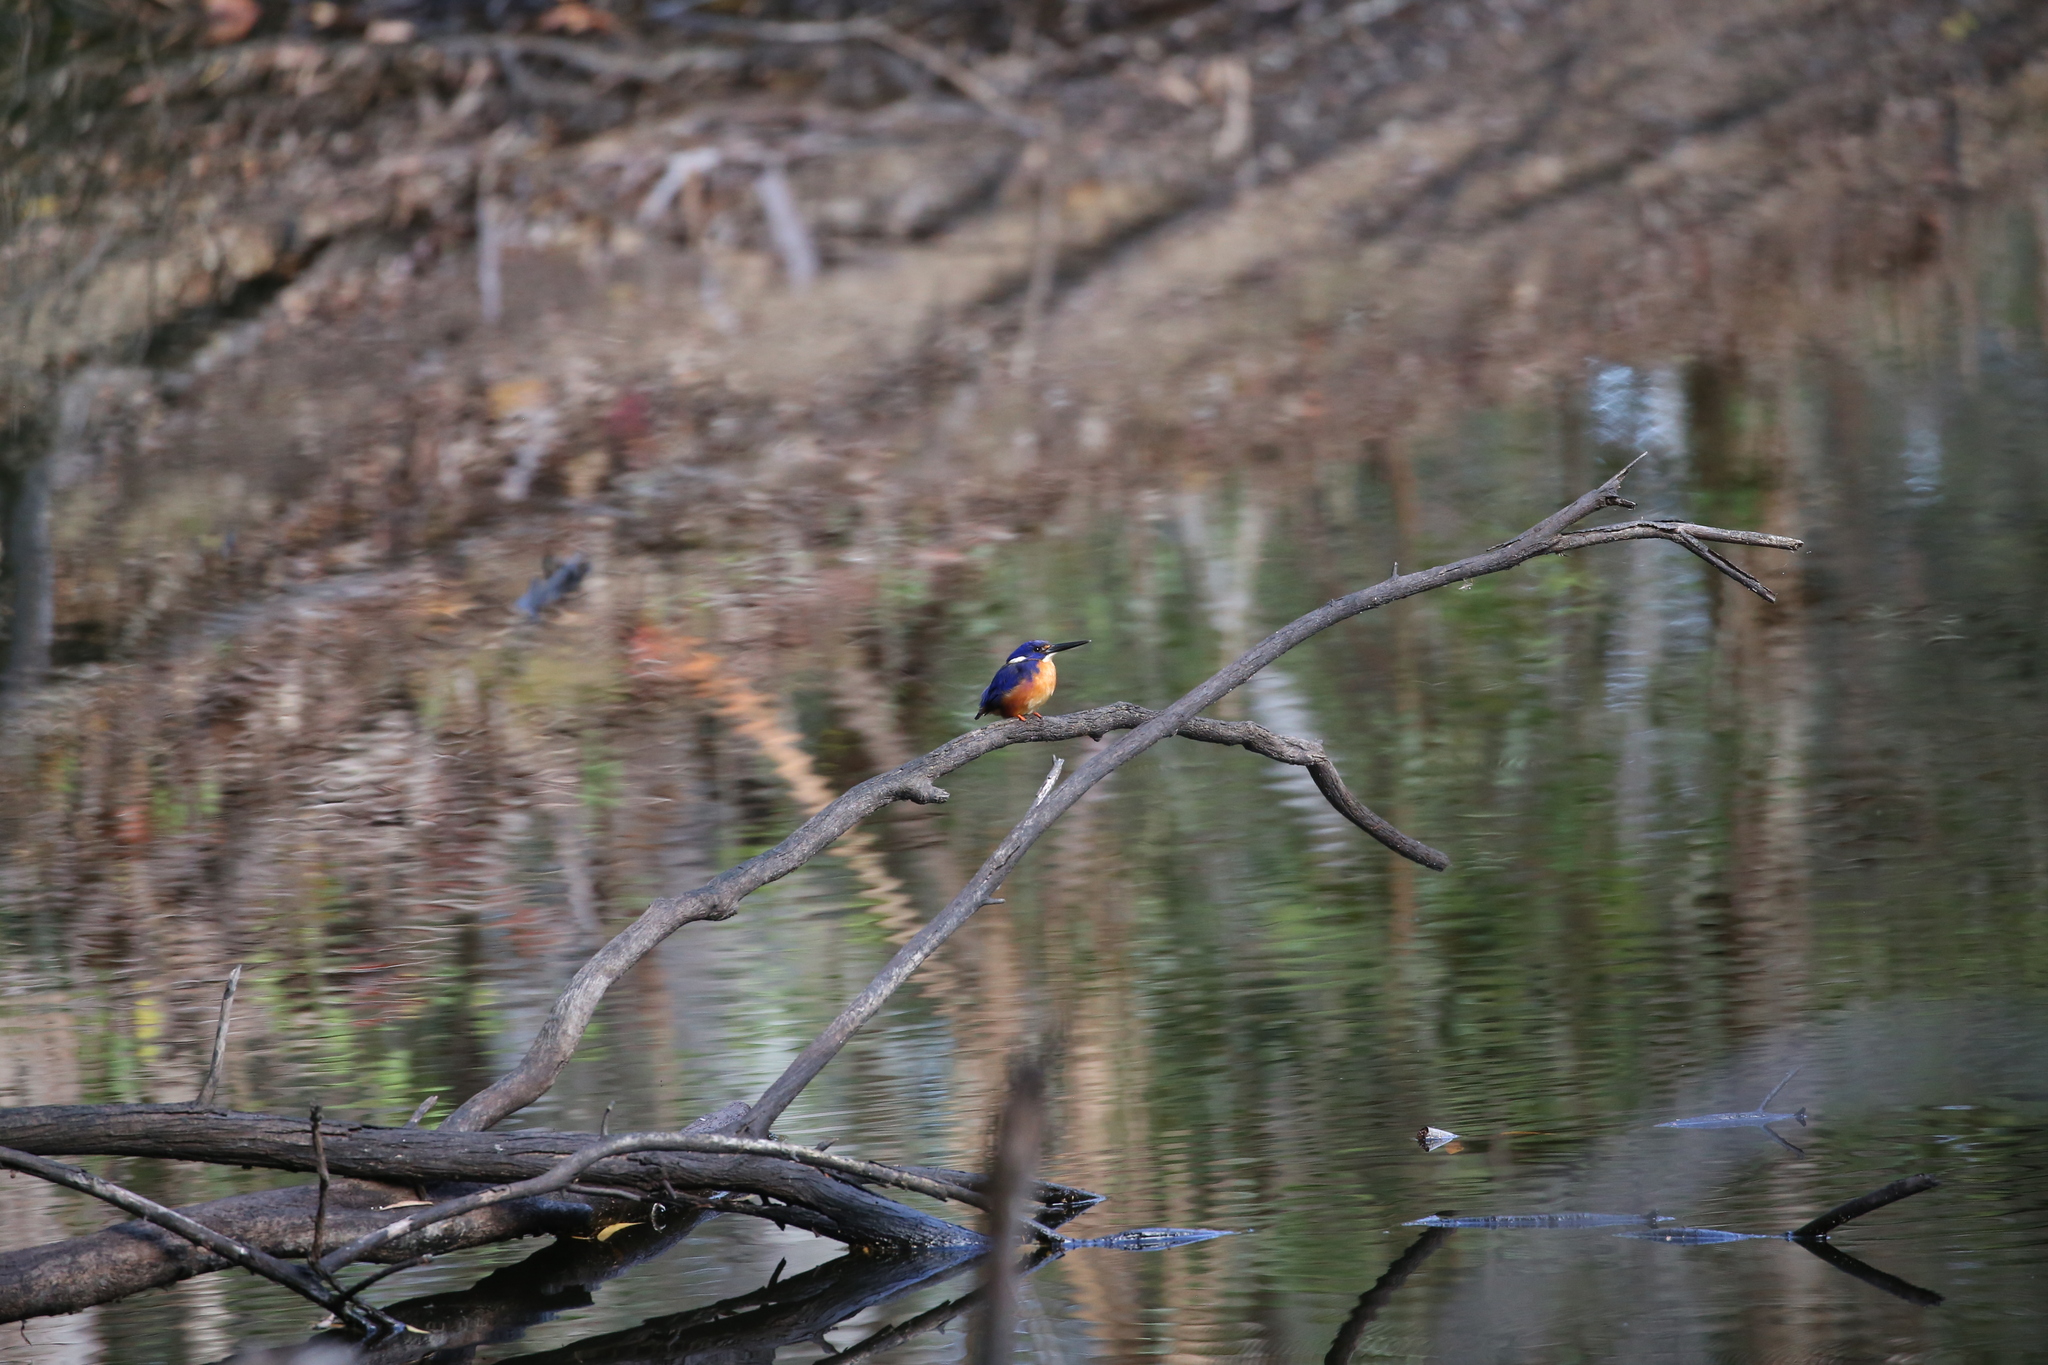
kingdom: Animalia
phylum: Chordata
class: Aves
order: Coraciiformes
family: Alcedinidae
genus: Ceyx
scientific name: Ceyx azureus
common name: Azure kingfisher
